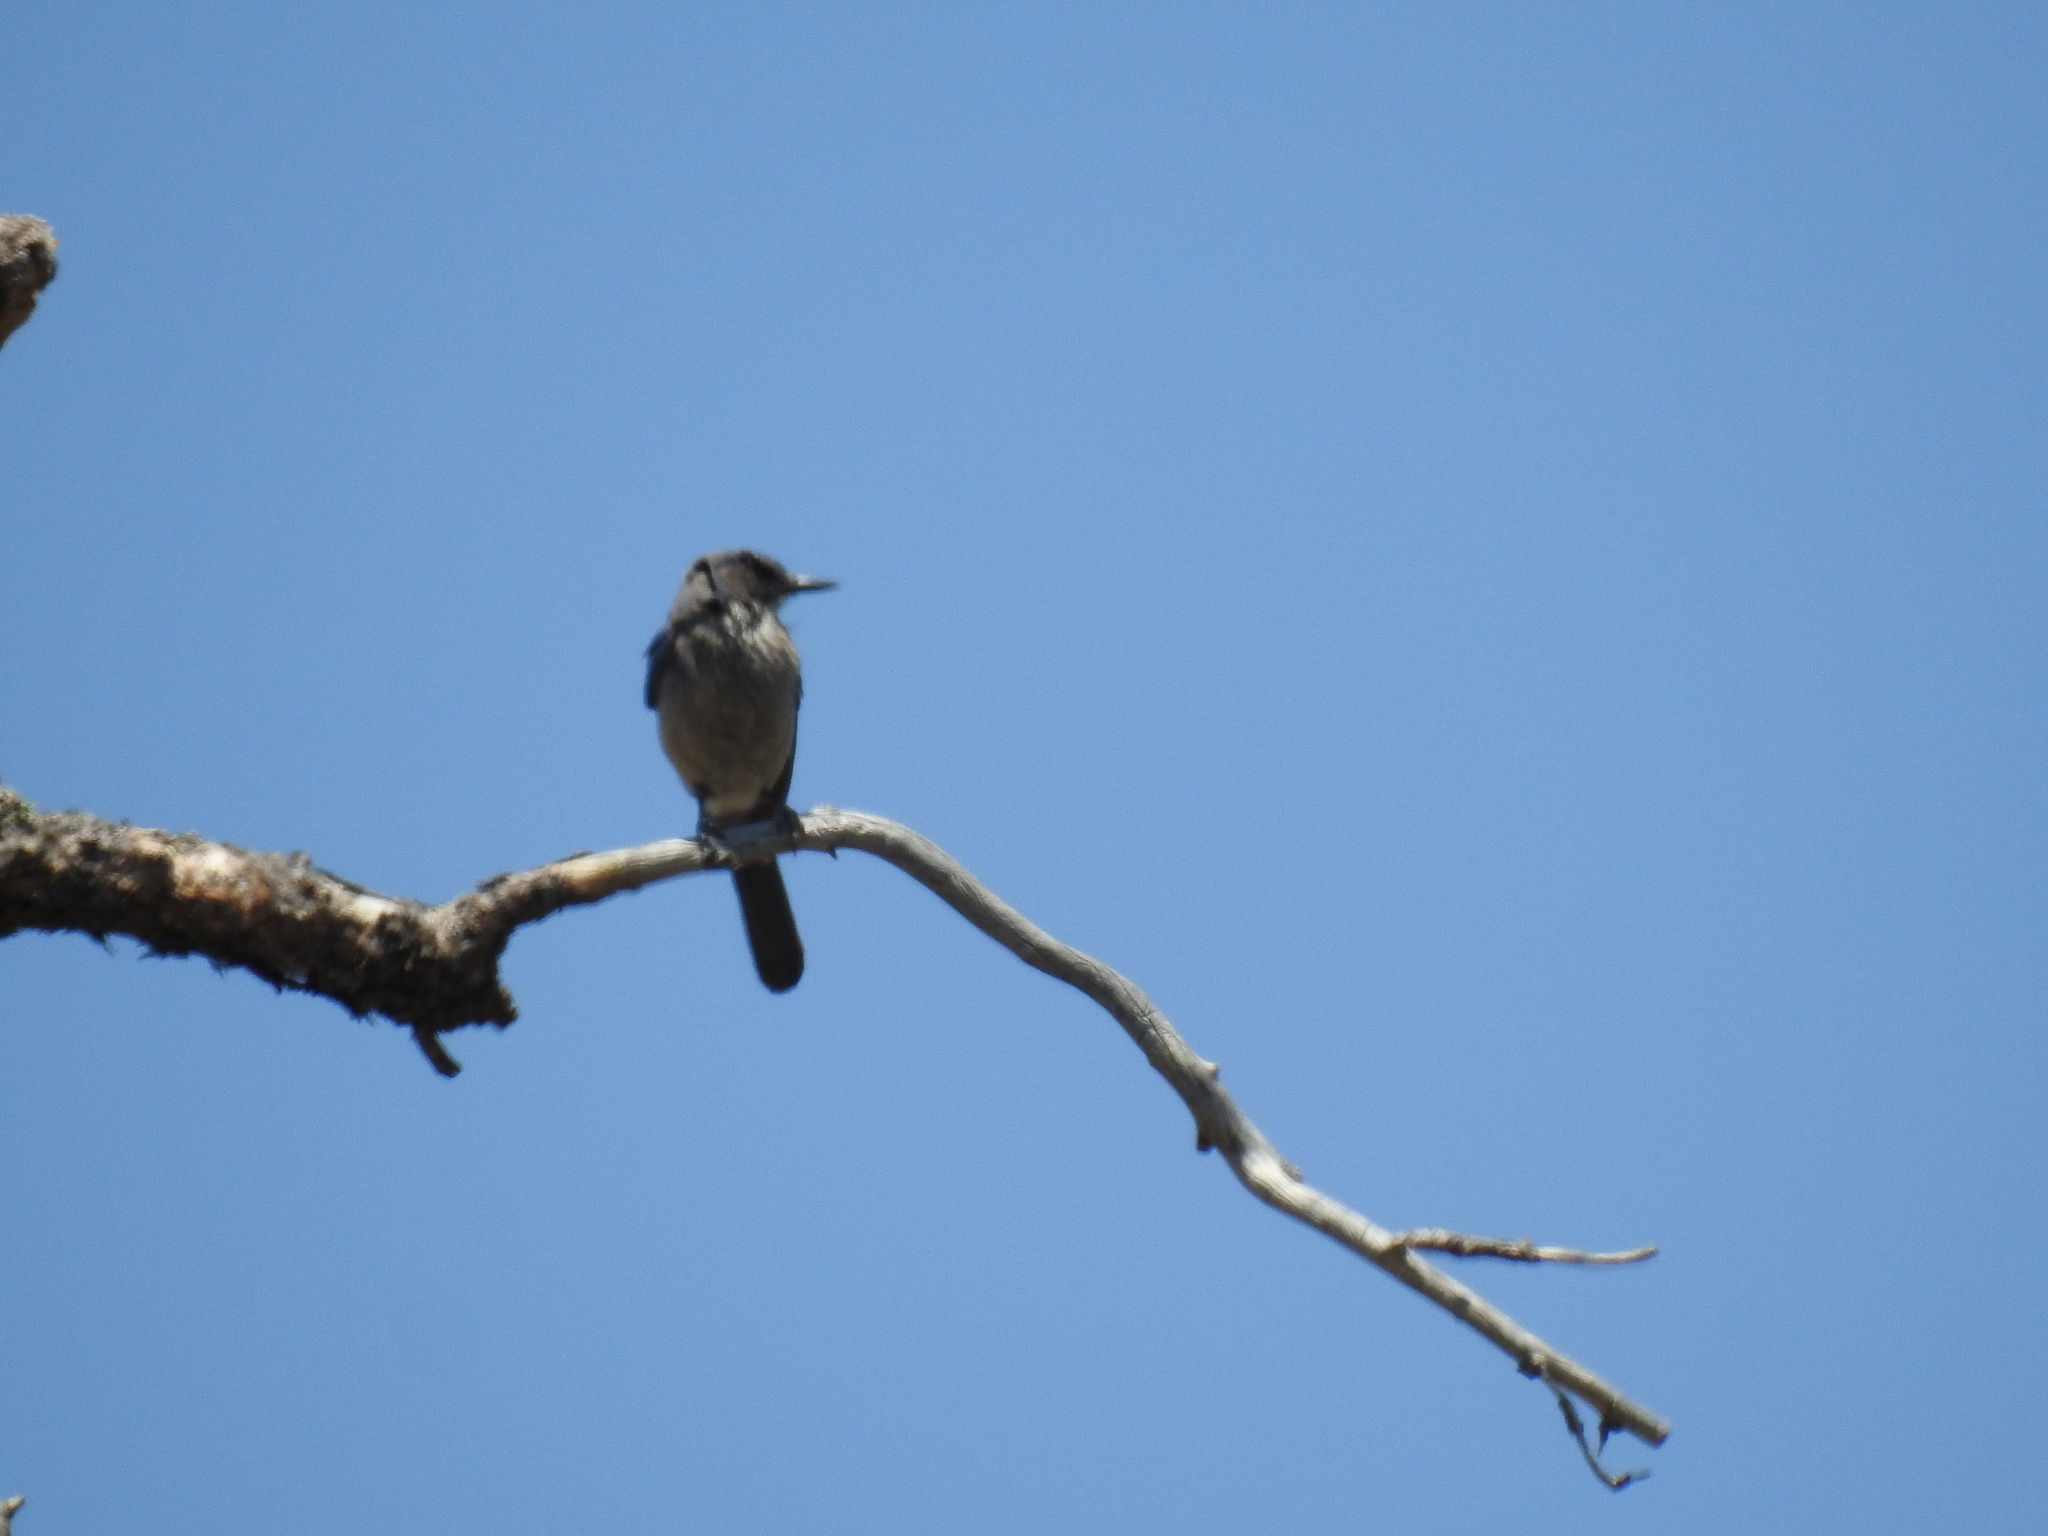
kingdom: Animalia
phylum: Chordata
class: Aves
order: Passeriformes
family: Corvidae
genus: Aphelocoma
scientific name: Aphelocoma woodhouseii
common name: Woodhouse's scrub-jay
